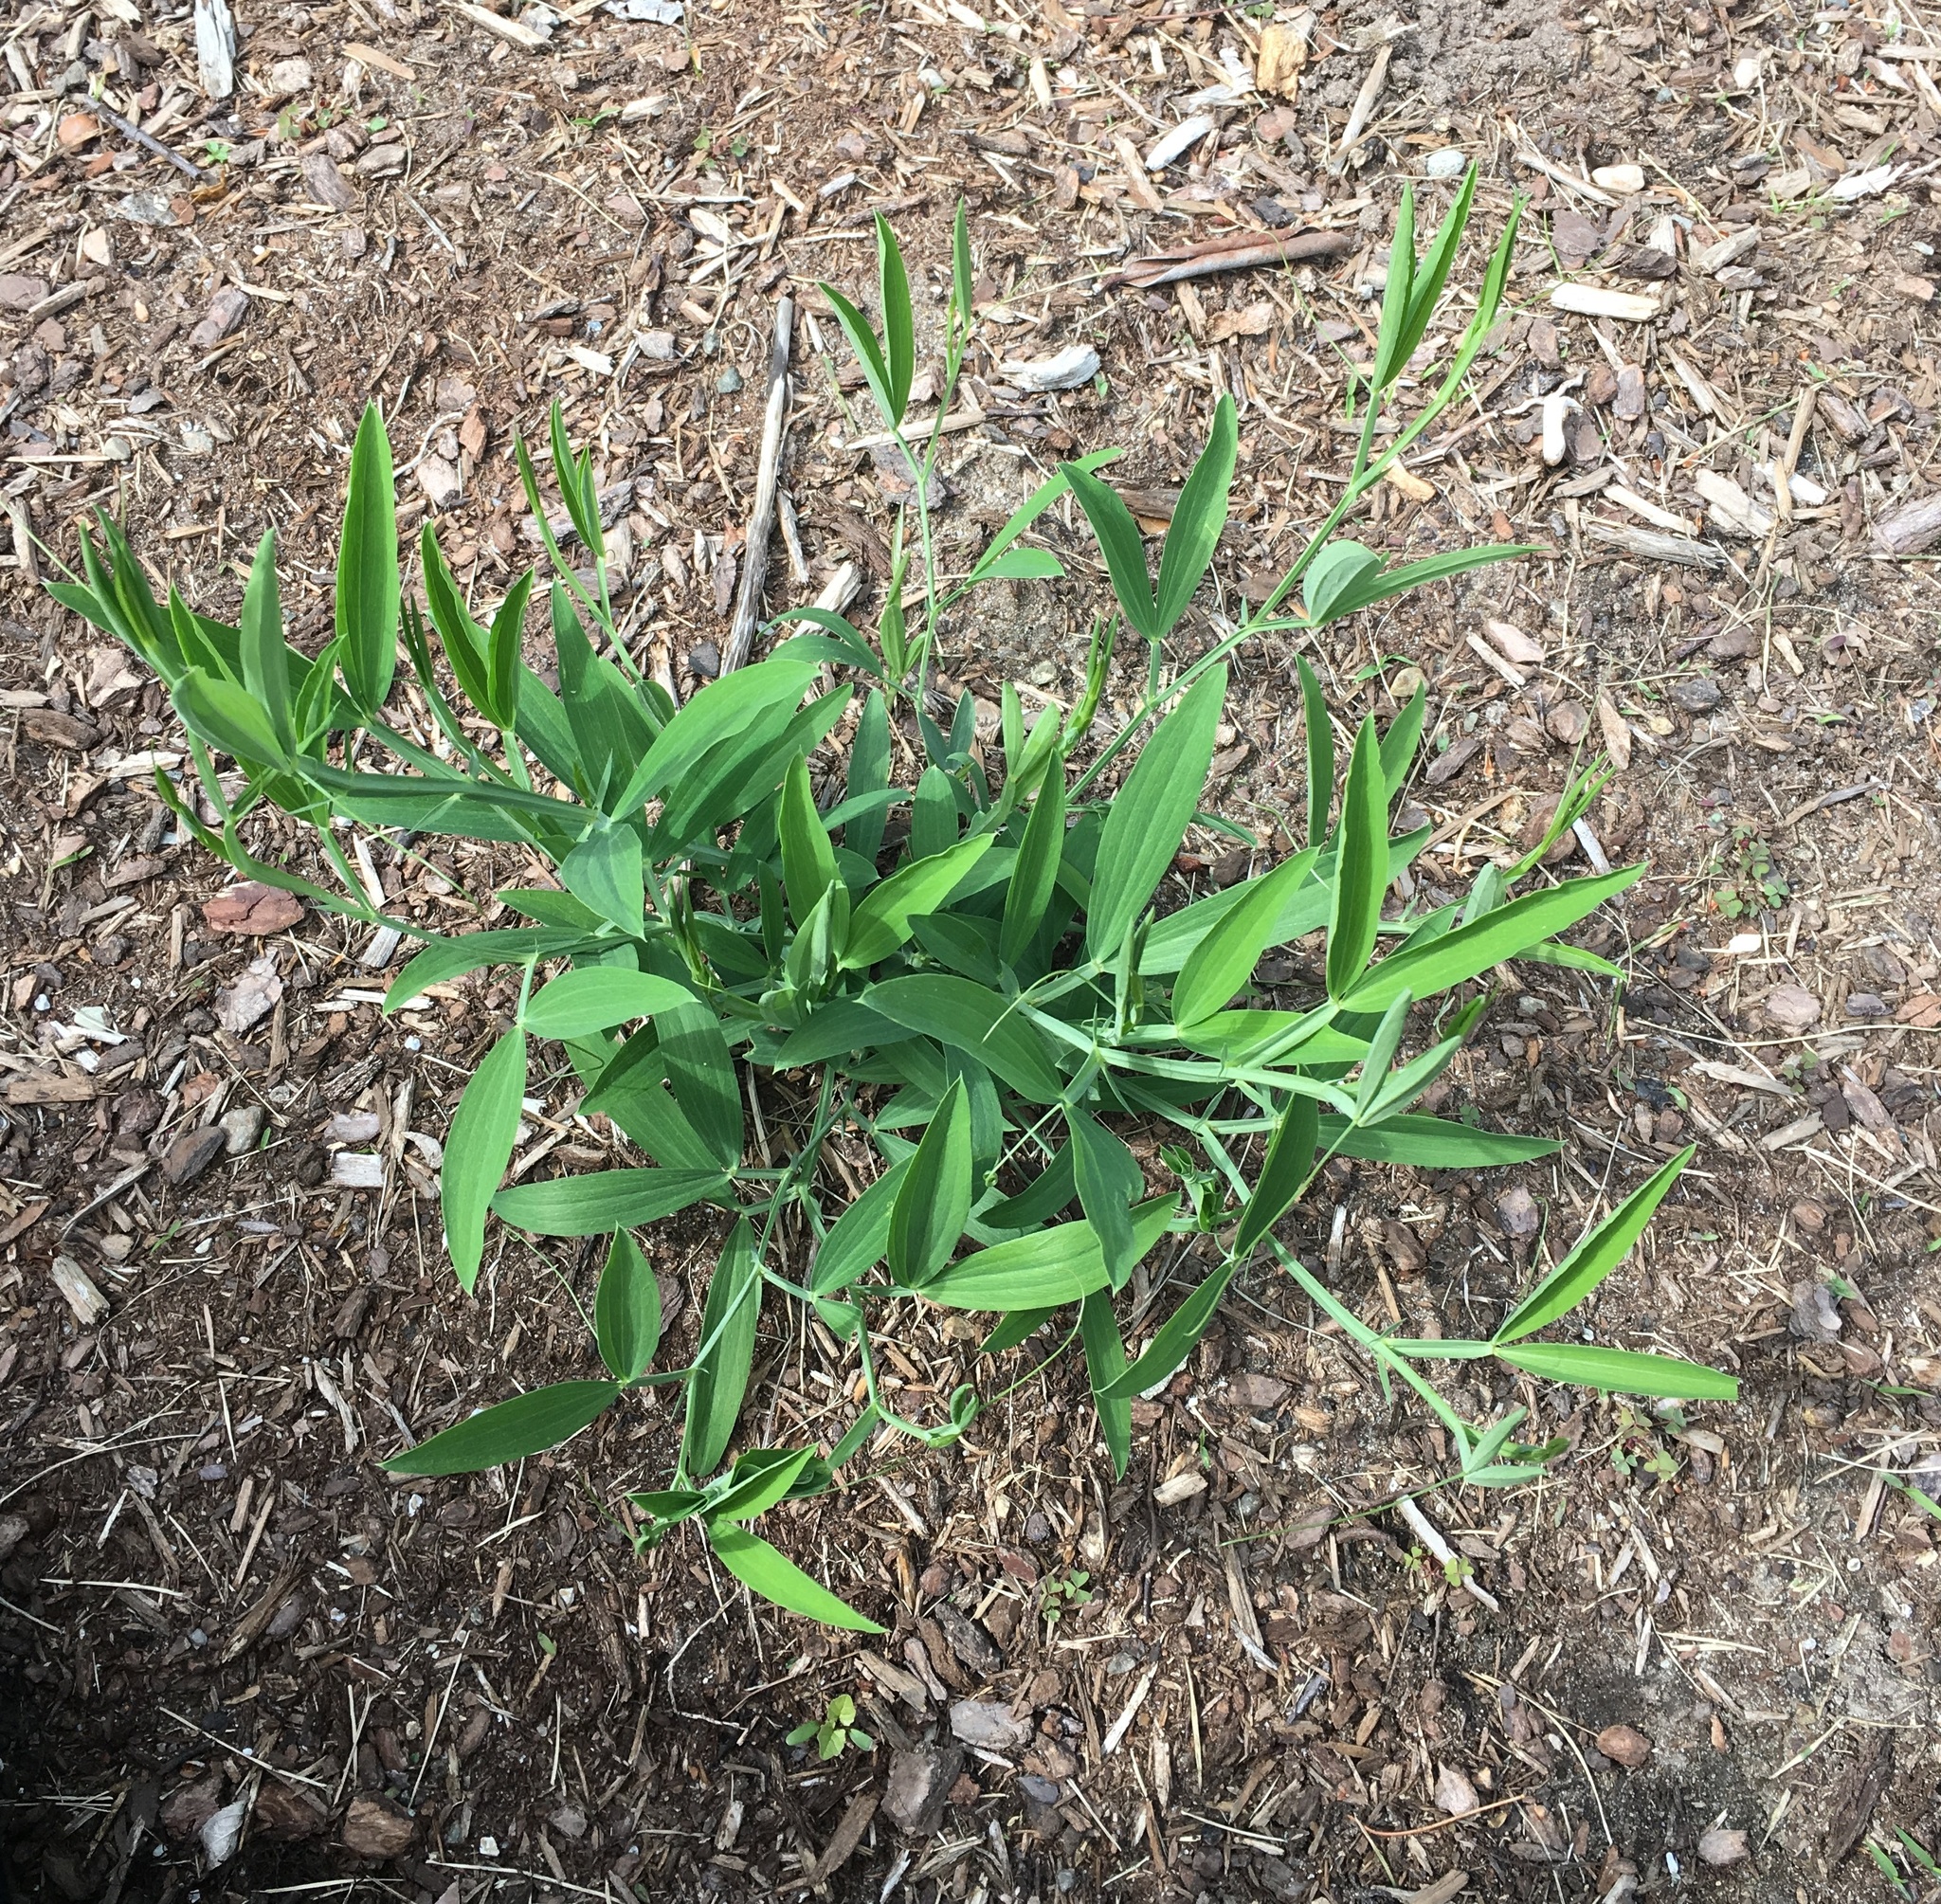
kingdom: Plantae
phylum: Tracheophyta
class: Magnoliopsida
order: Fabales
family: Fabaceae
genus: Lathyrus
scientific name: Lathyrus latifolius
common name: Perennial pea
